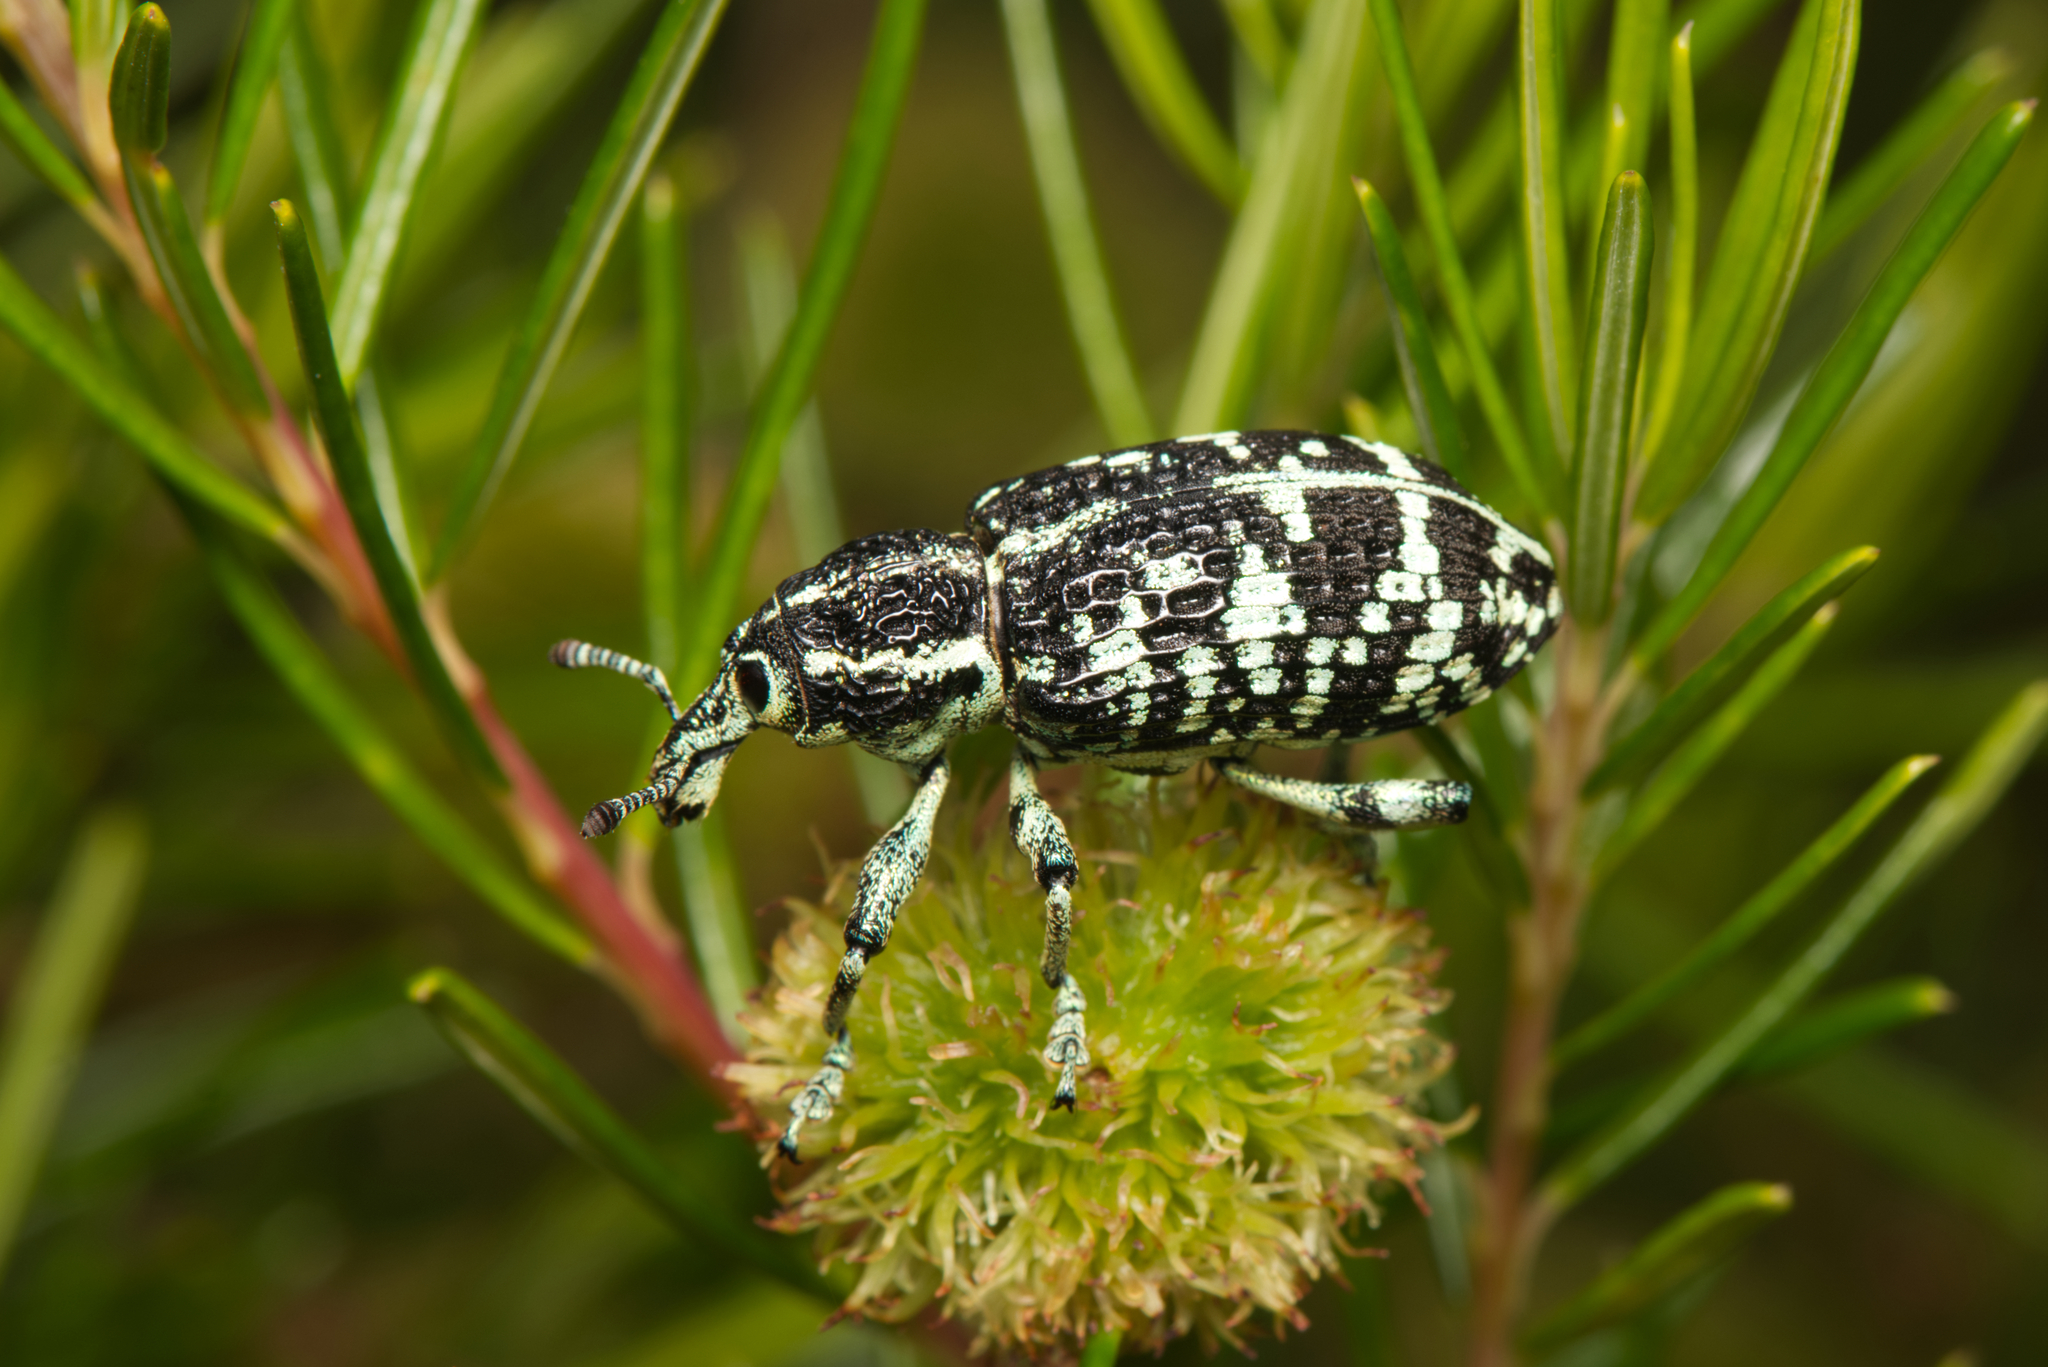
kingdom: Animalia
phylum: Arthropoda
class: Insecta
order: Coleoptera
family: Curculionidae
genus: Chrysolopus
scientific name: Chrysolopus spectabilis
